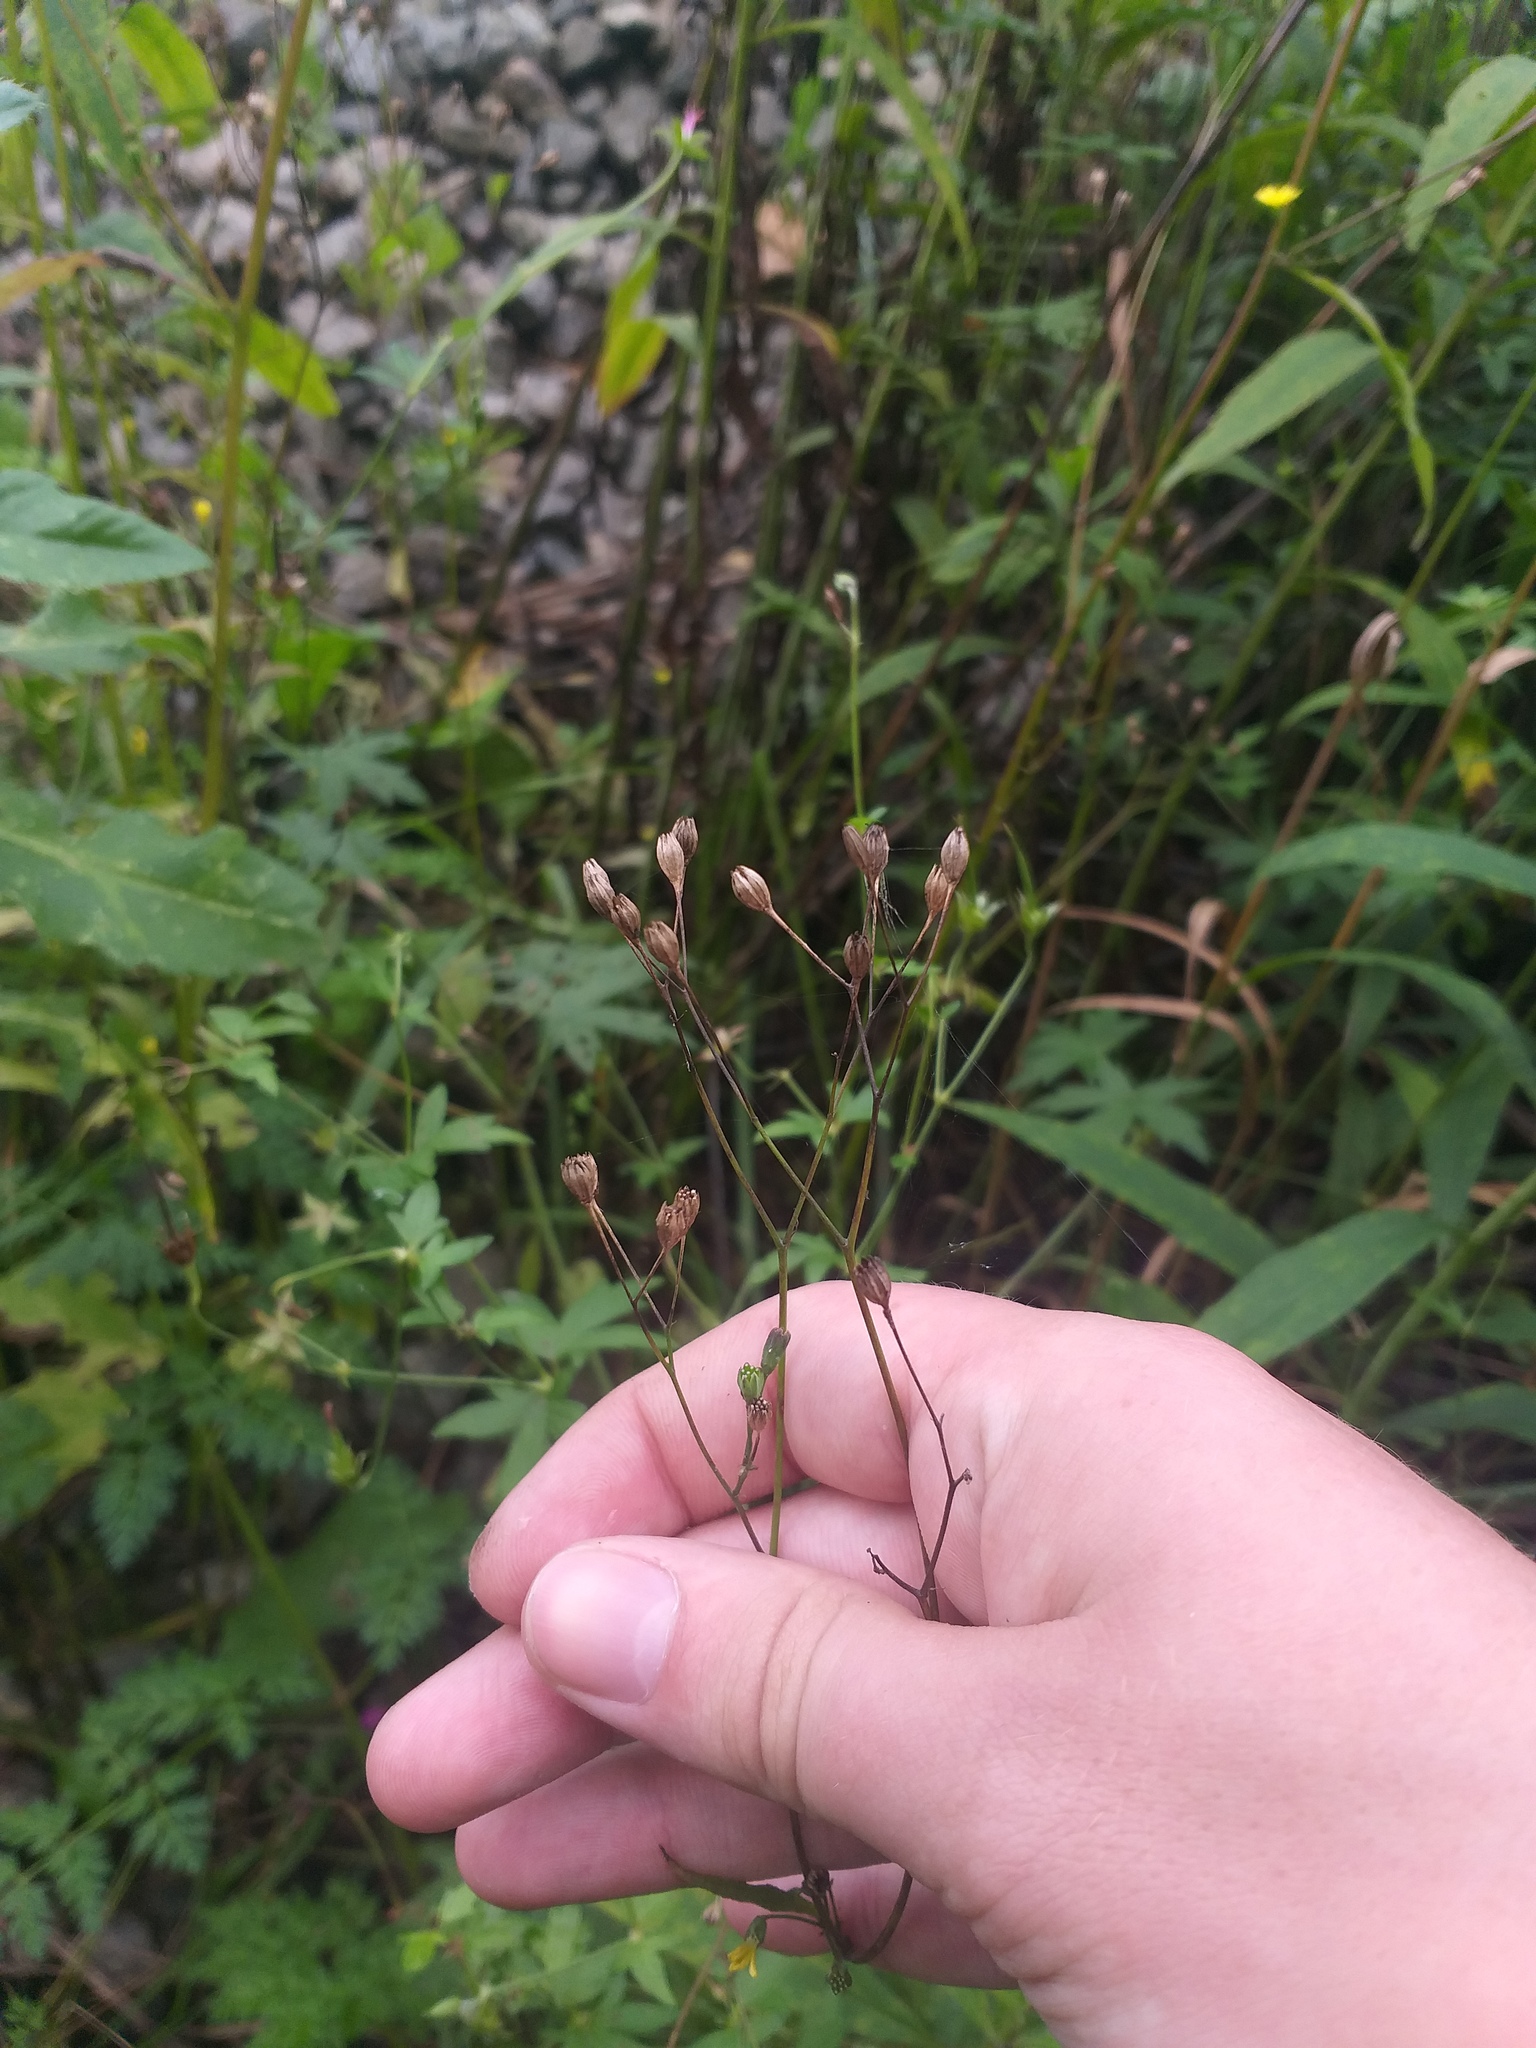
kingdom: Plantae
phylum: Tracheophyta
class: Magnoliopsida
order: Asterales
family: Asteraceae
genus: Lapsana
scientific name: Lapsana communis
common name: Nipplewort
